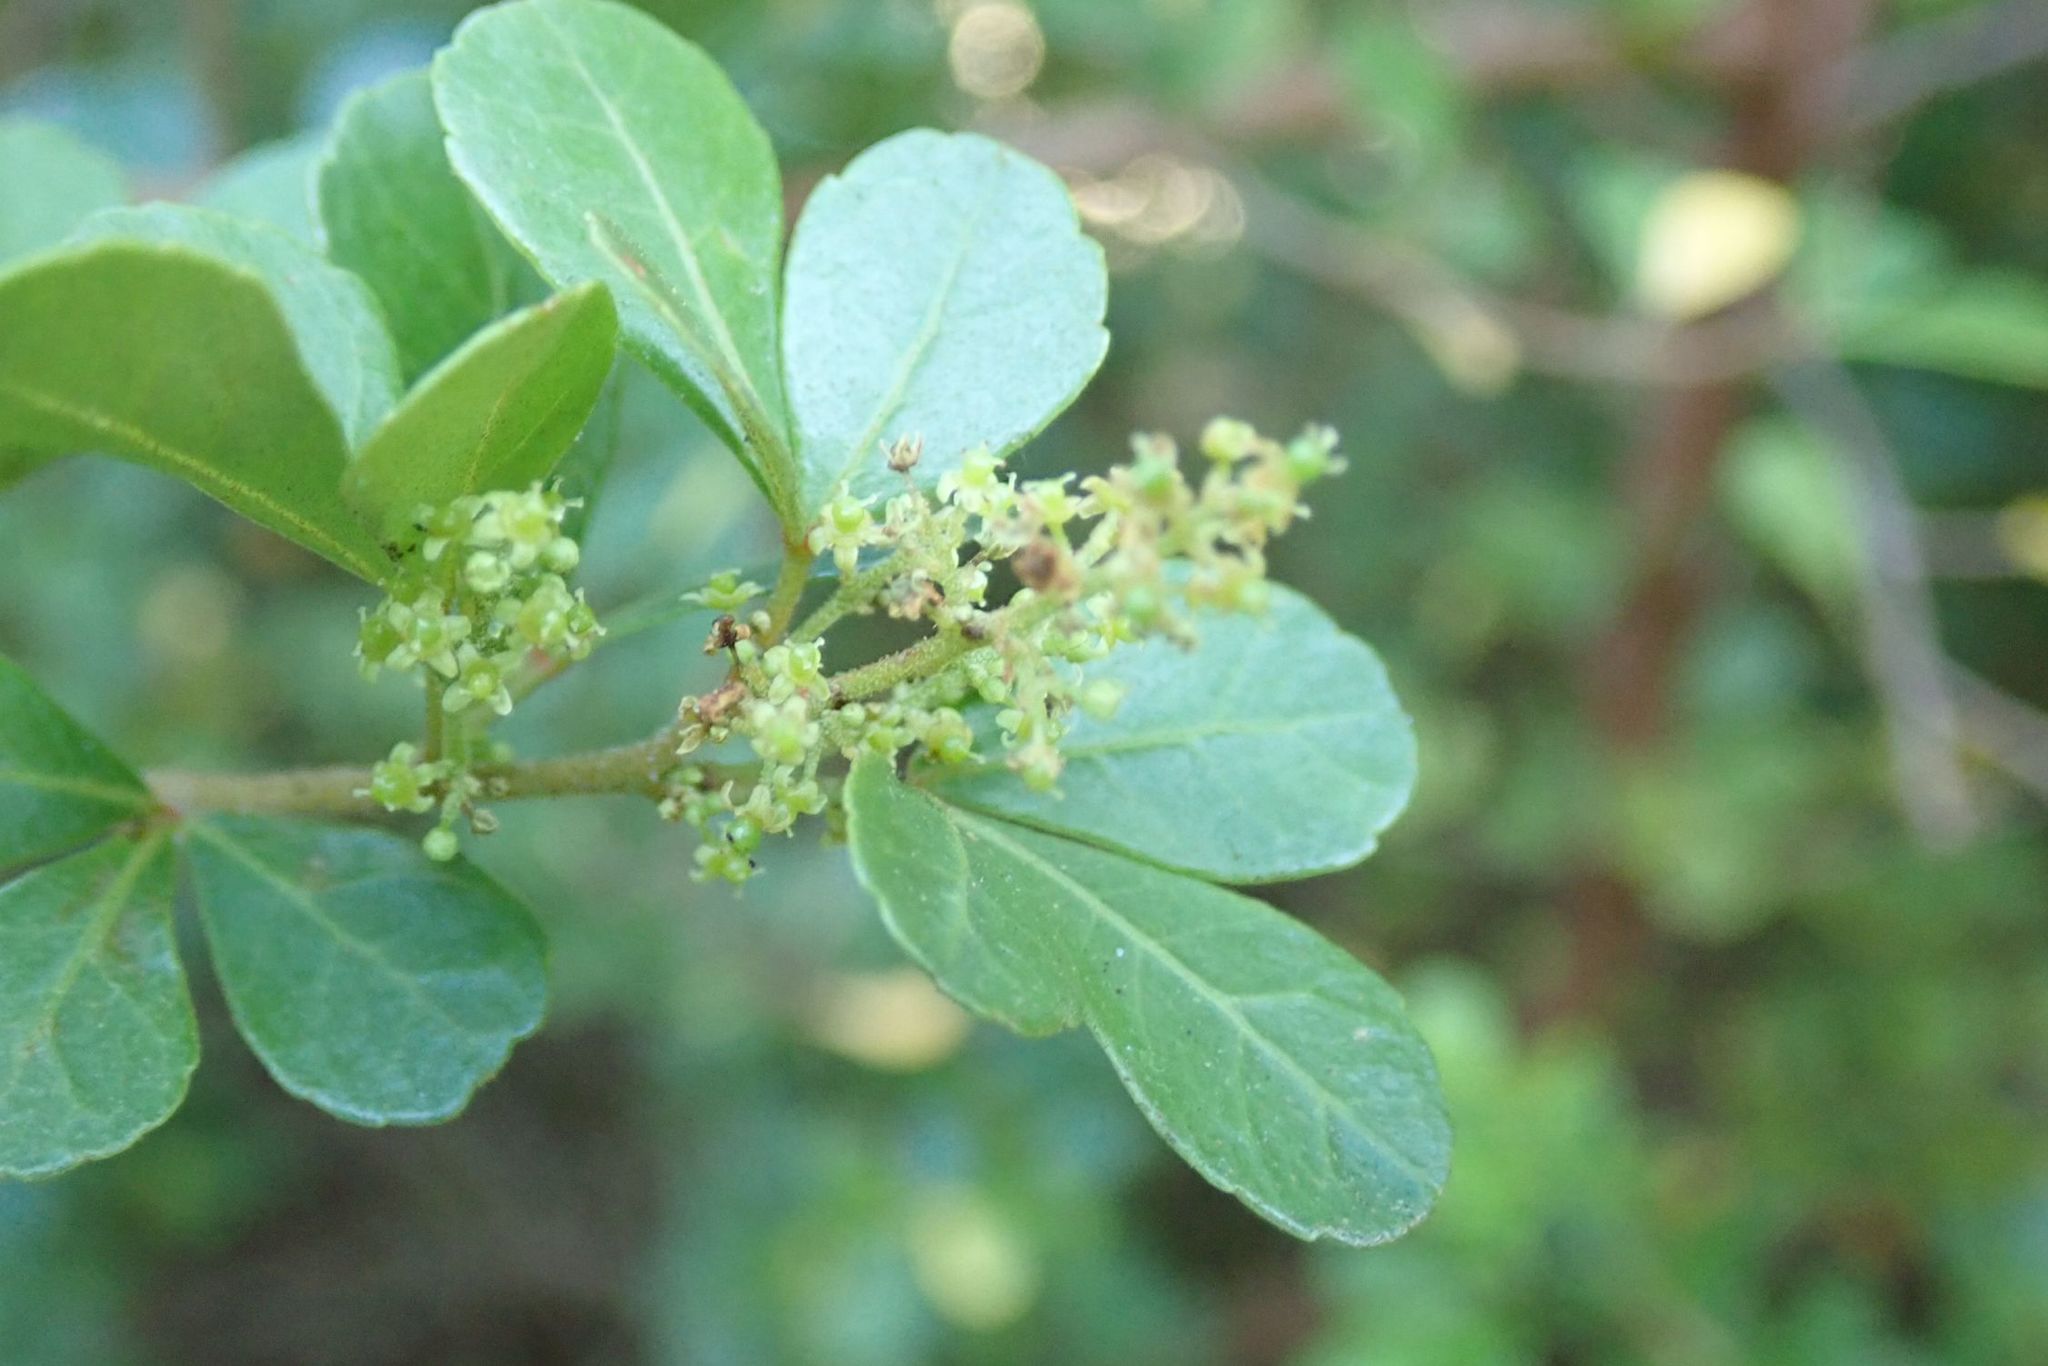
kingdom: Plantae
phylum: Tracheophyta
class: Magnoliopsida
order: Sapindales
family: Anacardiaceae
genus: Searsia
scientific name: Searsia crenata
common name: Crowberry
